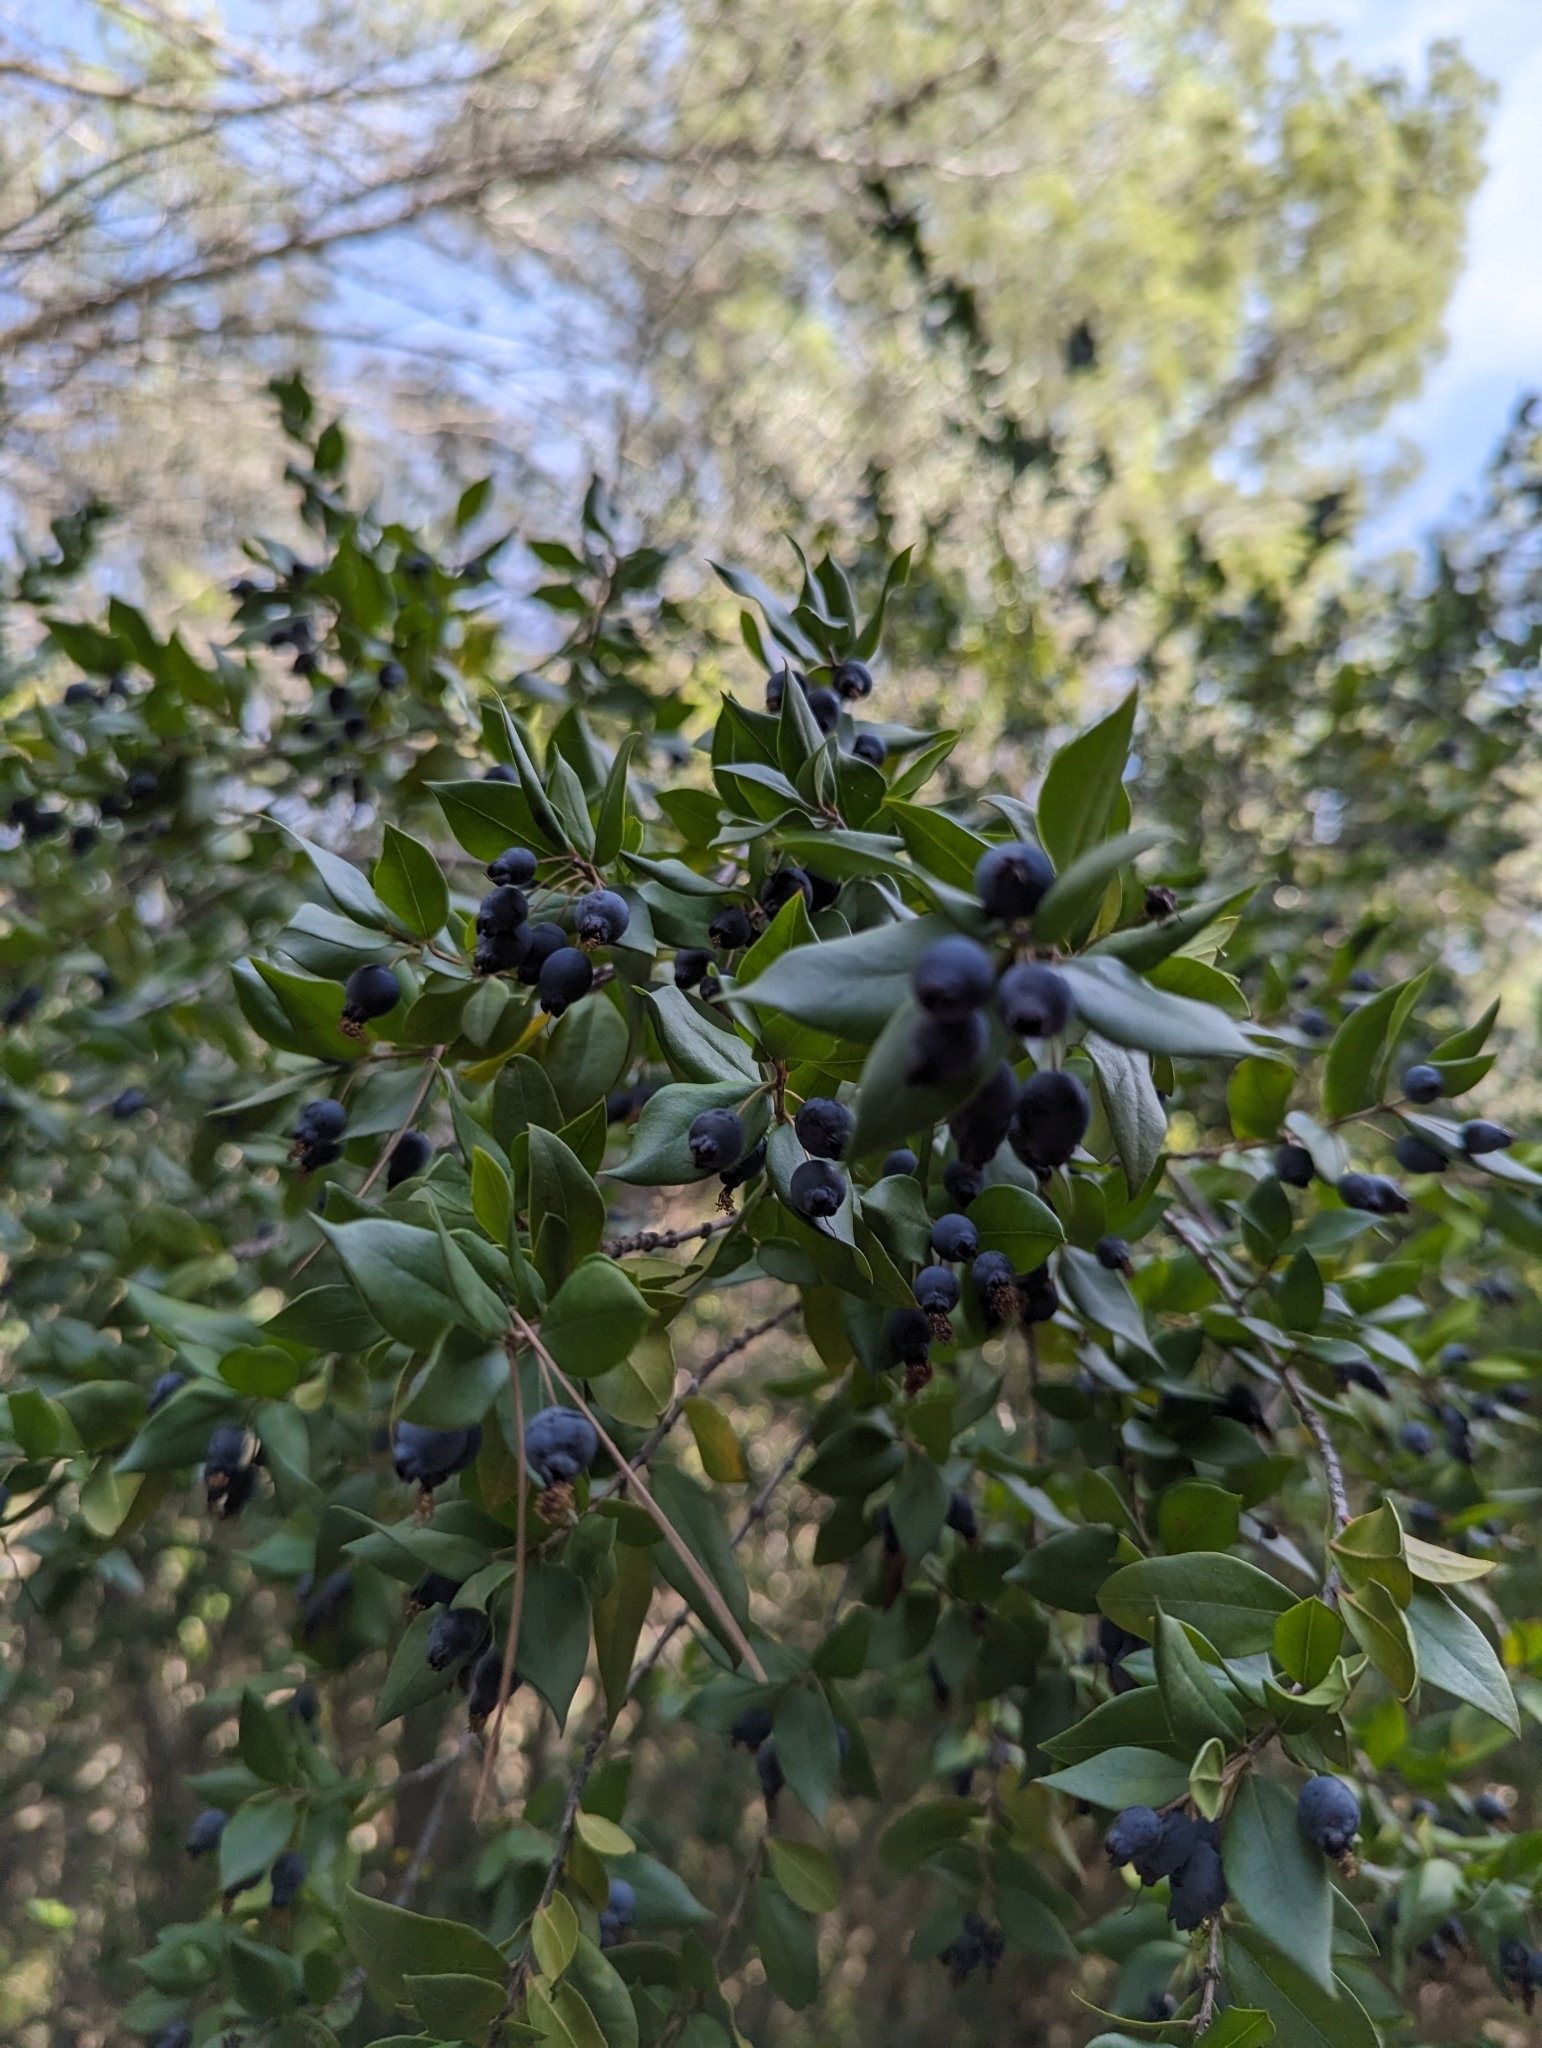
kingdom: Plantae
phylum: Tracheophyta
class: Magnoliopsida
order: Myrtales
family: Myrtaceae
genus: Myrtus
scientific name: Myrtus communis
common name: Myrtle
